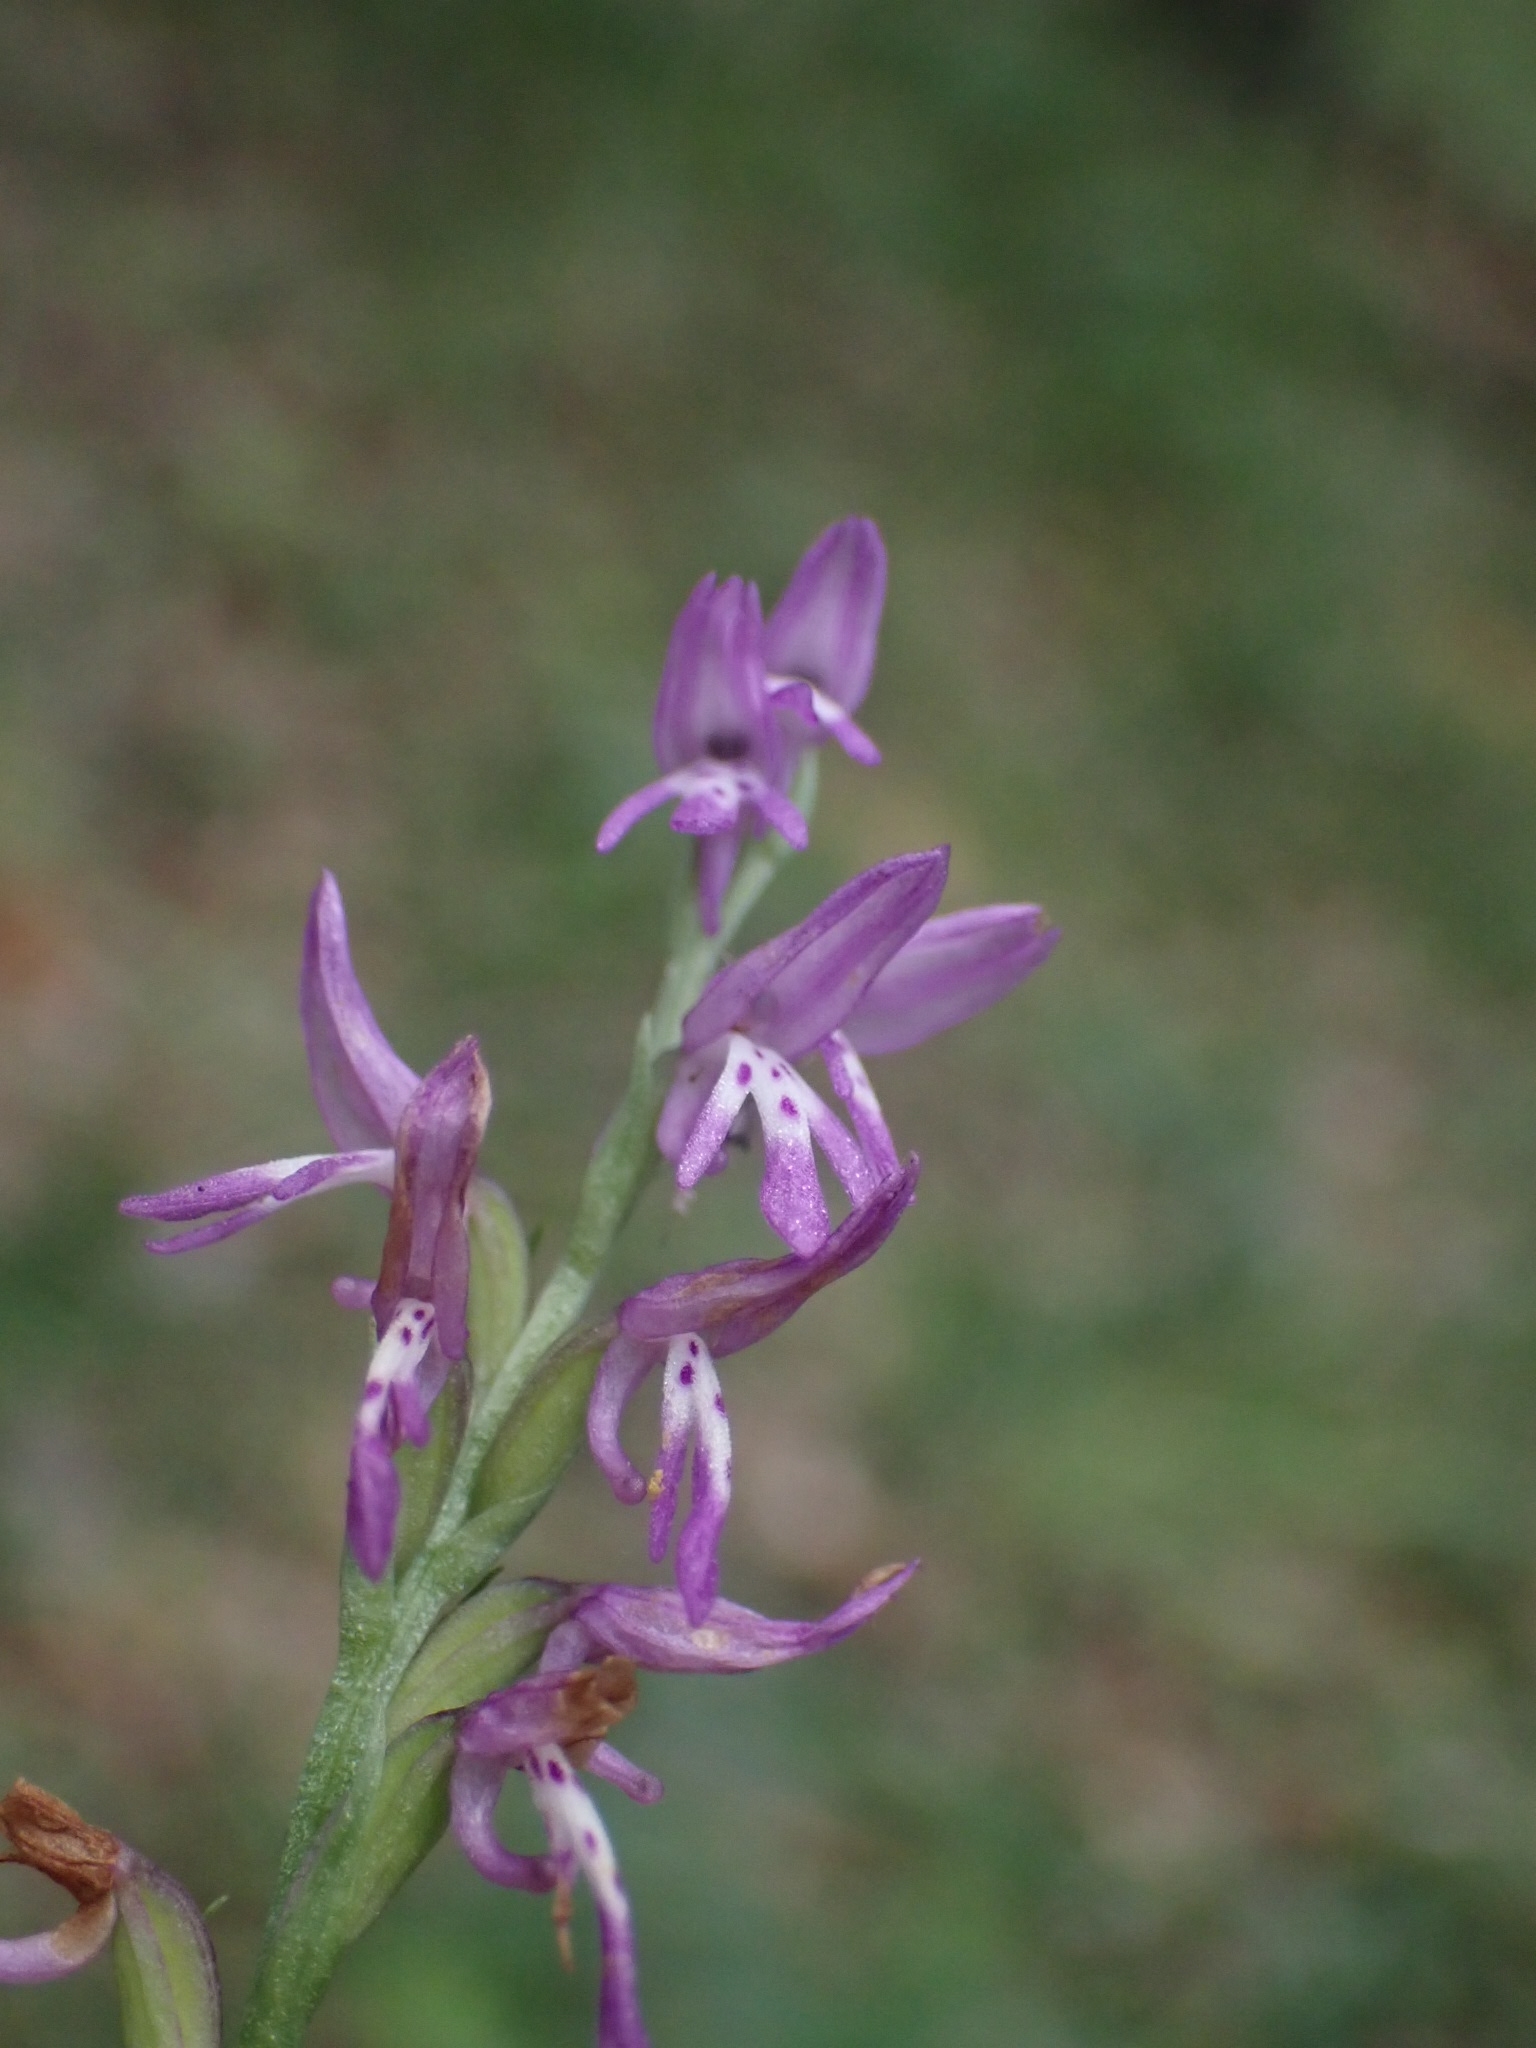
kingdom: Plantae
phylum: Tracheophyta
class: Liliopsida
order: Asparagales
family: Orchidaceae
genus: Hemipilia
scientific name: Hemipilia cucullata
